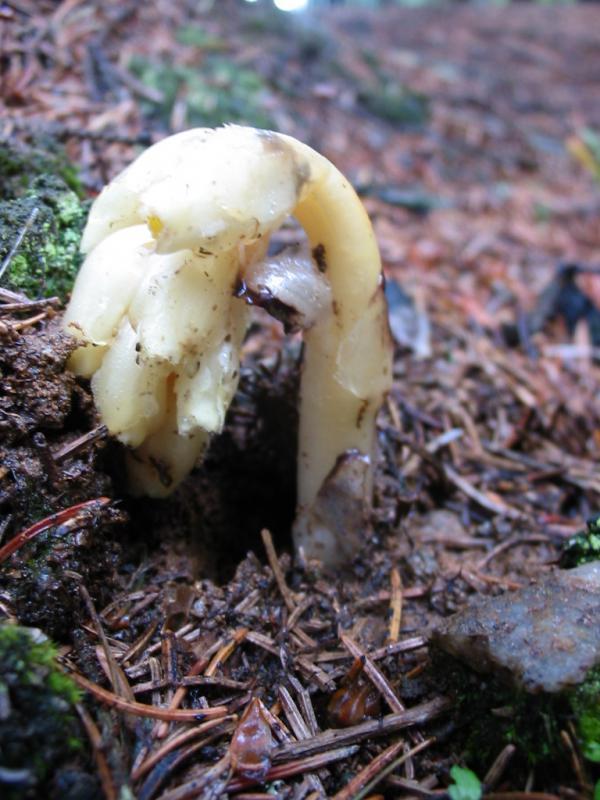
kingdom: Plantae
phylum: Tracheophyta
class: Magnoliopsida
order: Ericales
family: Ericaceae
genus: Hypopitys
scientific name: Hypopitys monotropa
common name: Yellow bird's-nest
